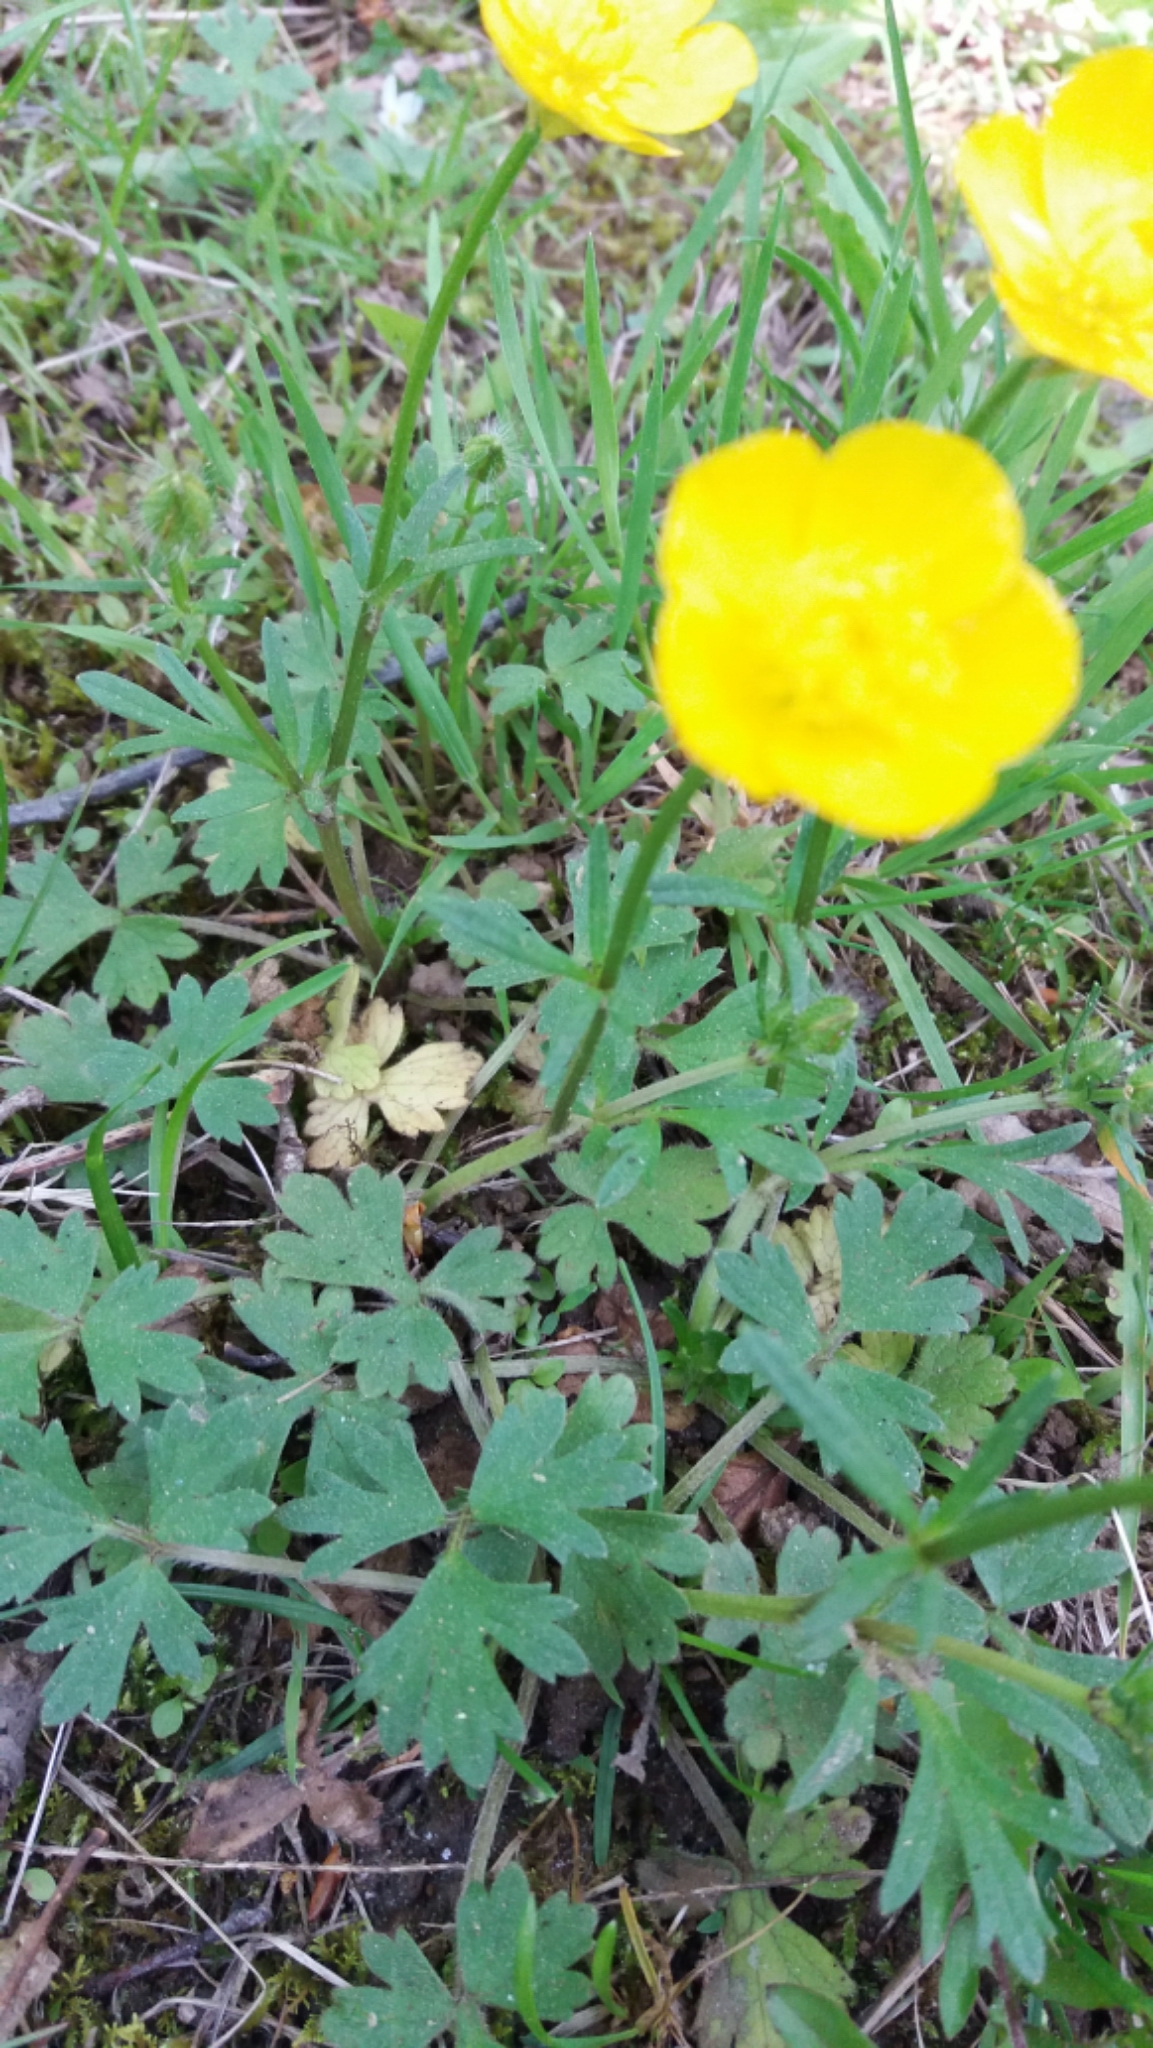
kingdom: Plantae
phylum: Tracheophyta
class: Magnoliopsida
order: Ranunculales
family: Ranunculaceae
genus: Ranunculus
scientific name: Ranunculus bulbosus
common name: Bulbous buttercup
